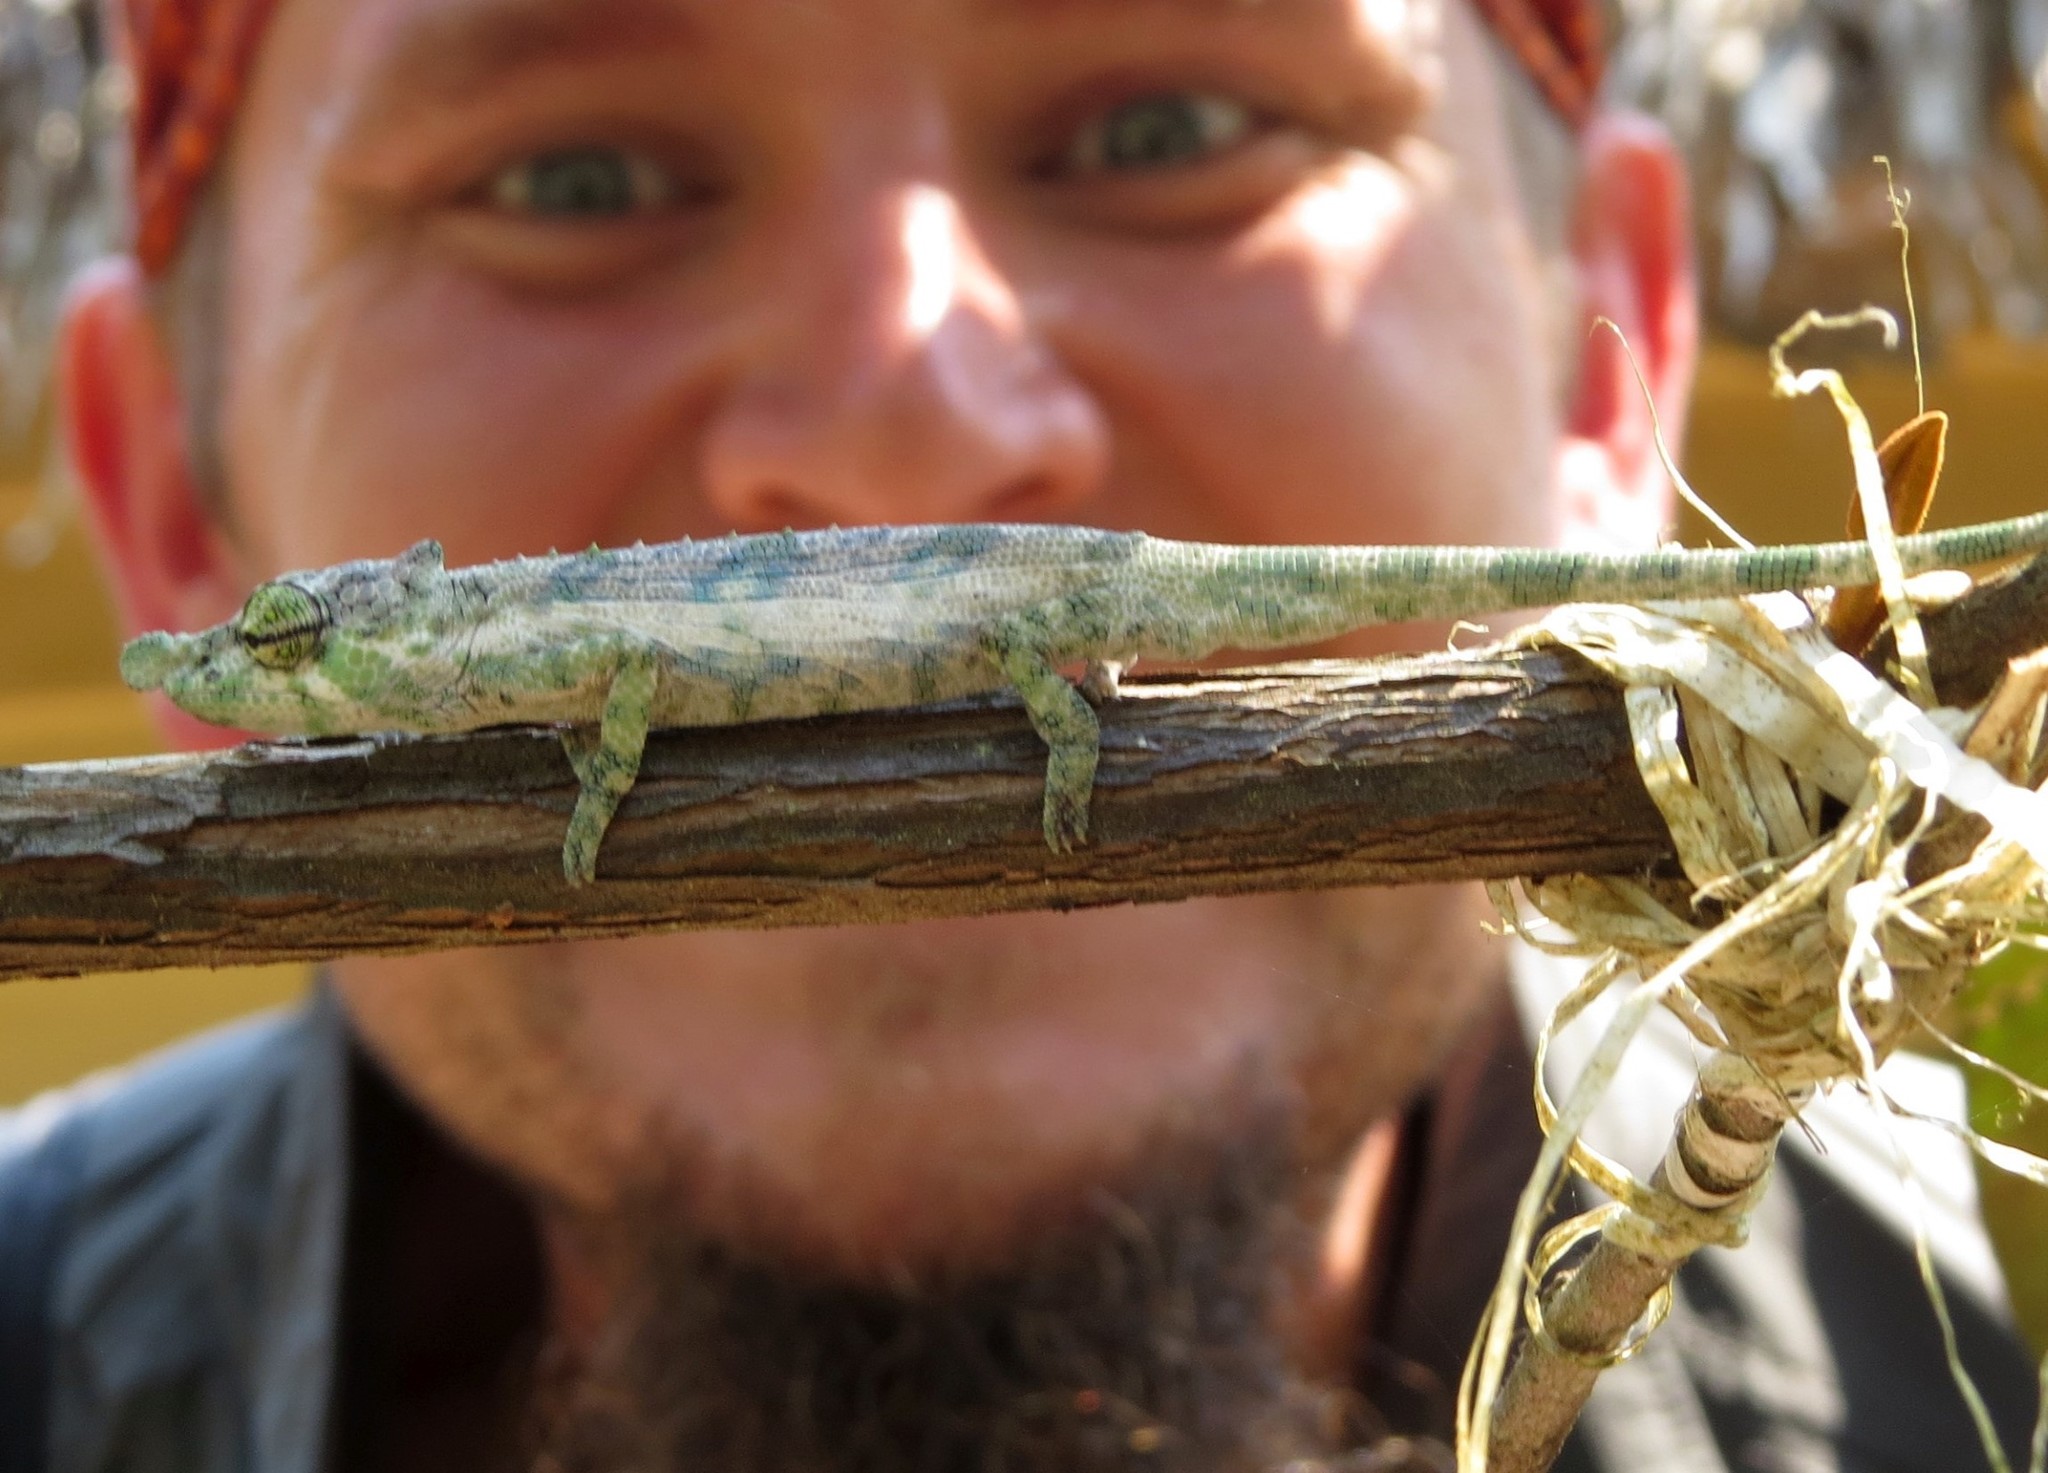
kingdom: Animalia
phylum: Chordata
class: Squamata
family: Chamaeleonidae
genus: Calumma
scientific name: Calumma nasutum
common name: Nose-horned chameleon
